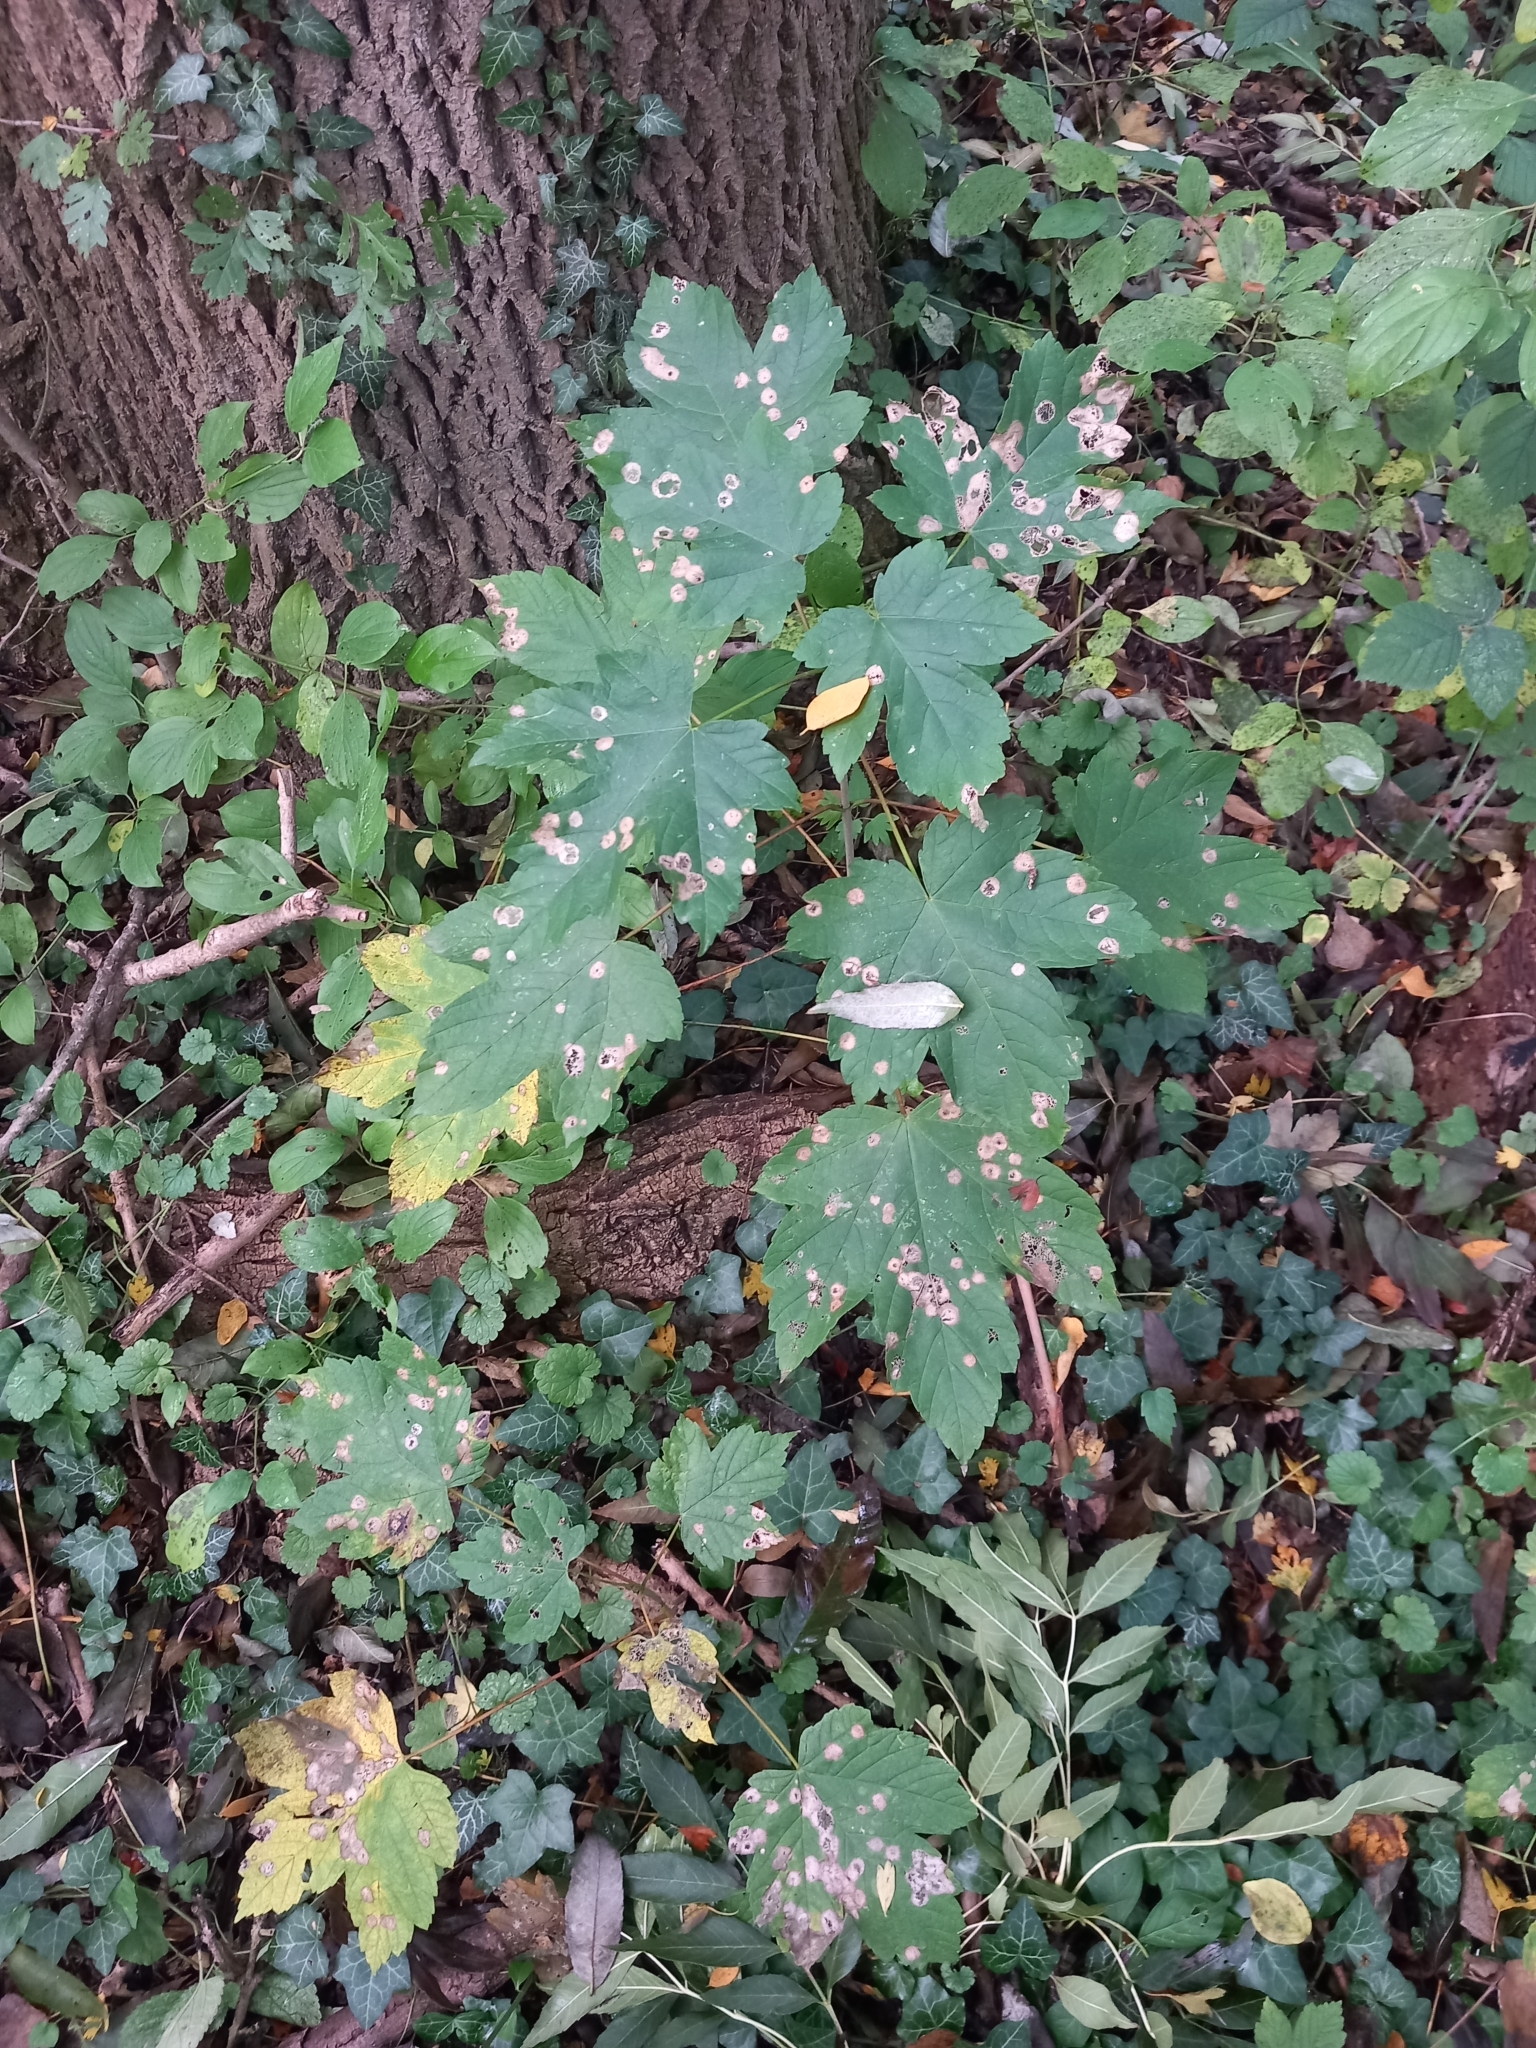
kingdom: Plantae
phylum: Tracheophyta
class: Magnoliopsida
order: Sapindales
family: Sapindaceae
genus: Acer
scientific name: Acer pseudoplatanus
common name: Sycamore
